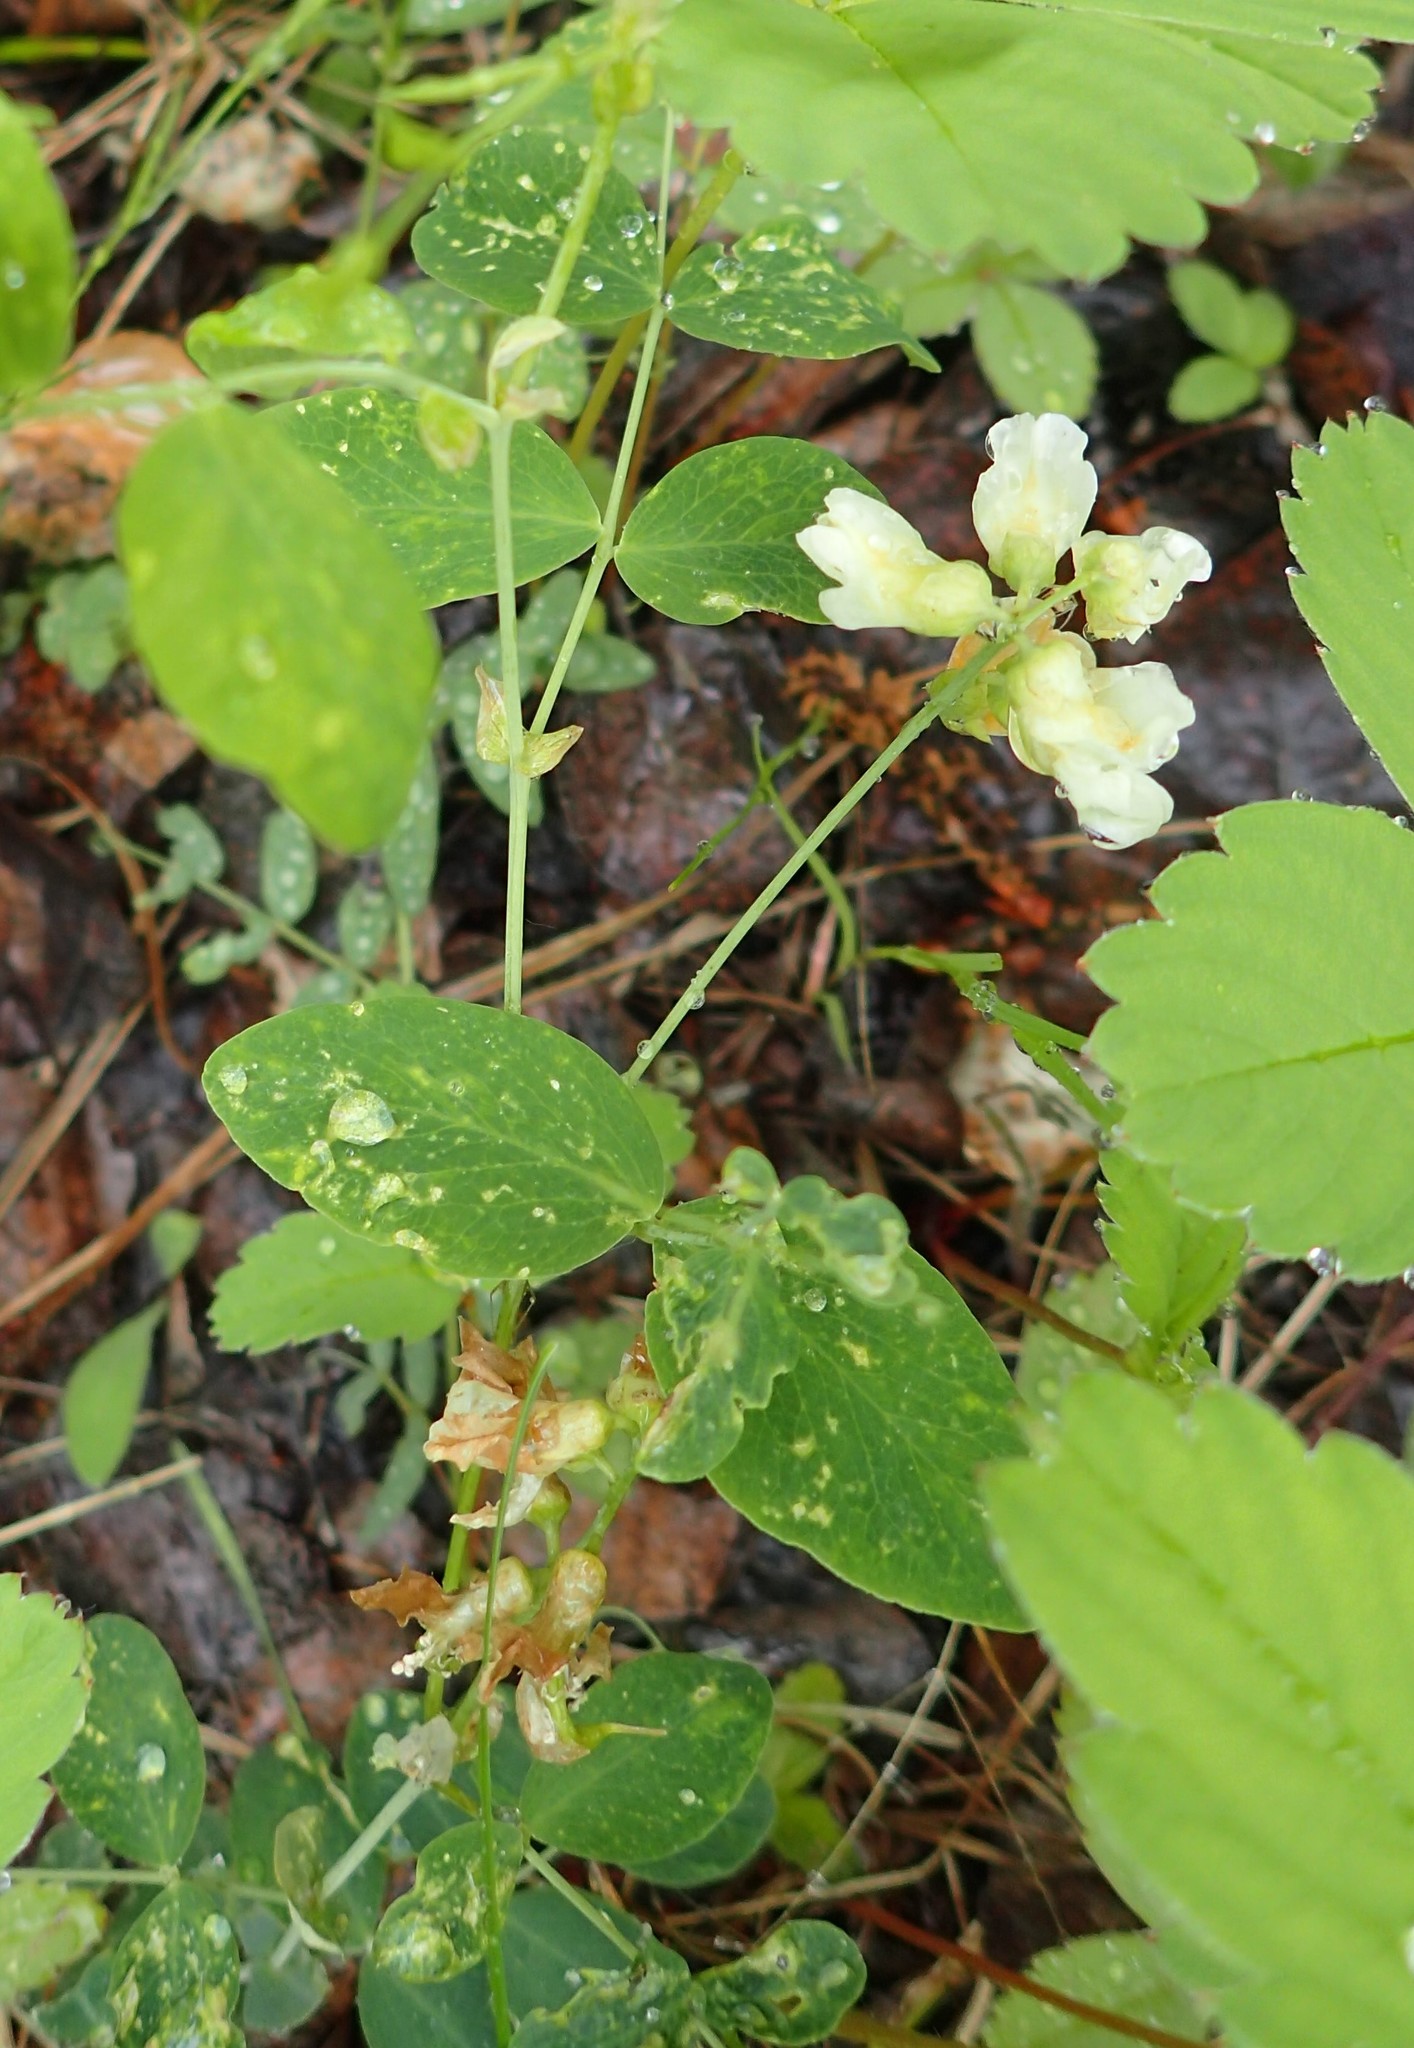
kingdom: Plantae
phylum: Tracheophyta
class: Magnoliopsida
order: Fabales
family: Fabaceae
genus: Lathyrus
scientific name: Lathyrus ochroleucus
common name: Pale vetchling
